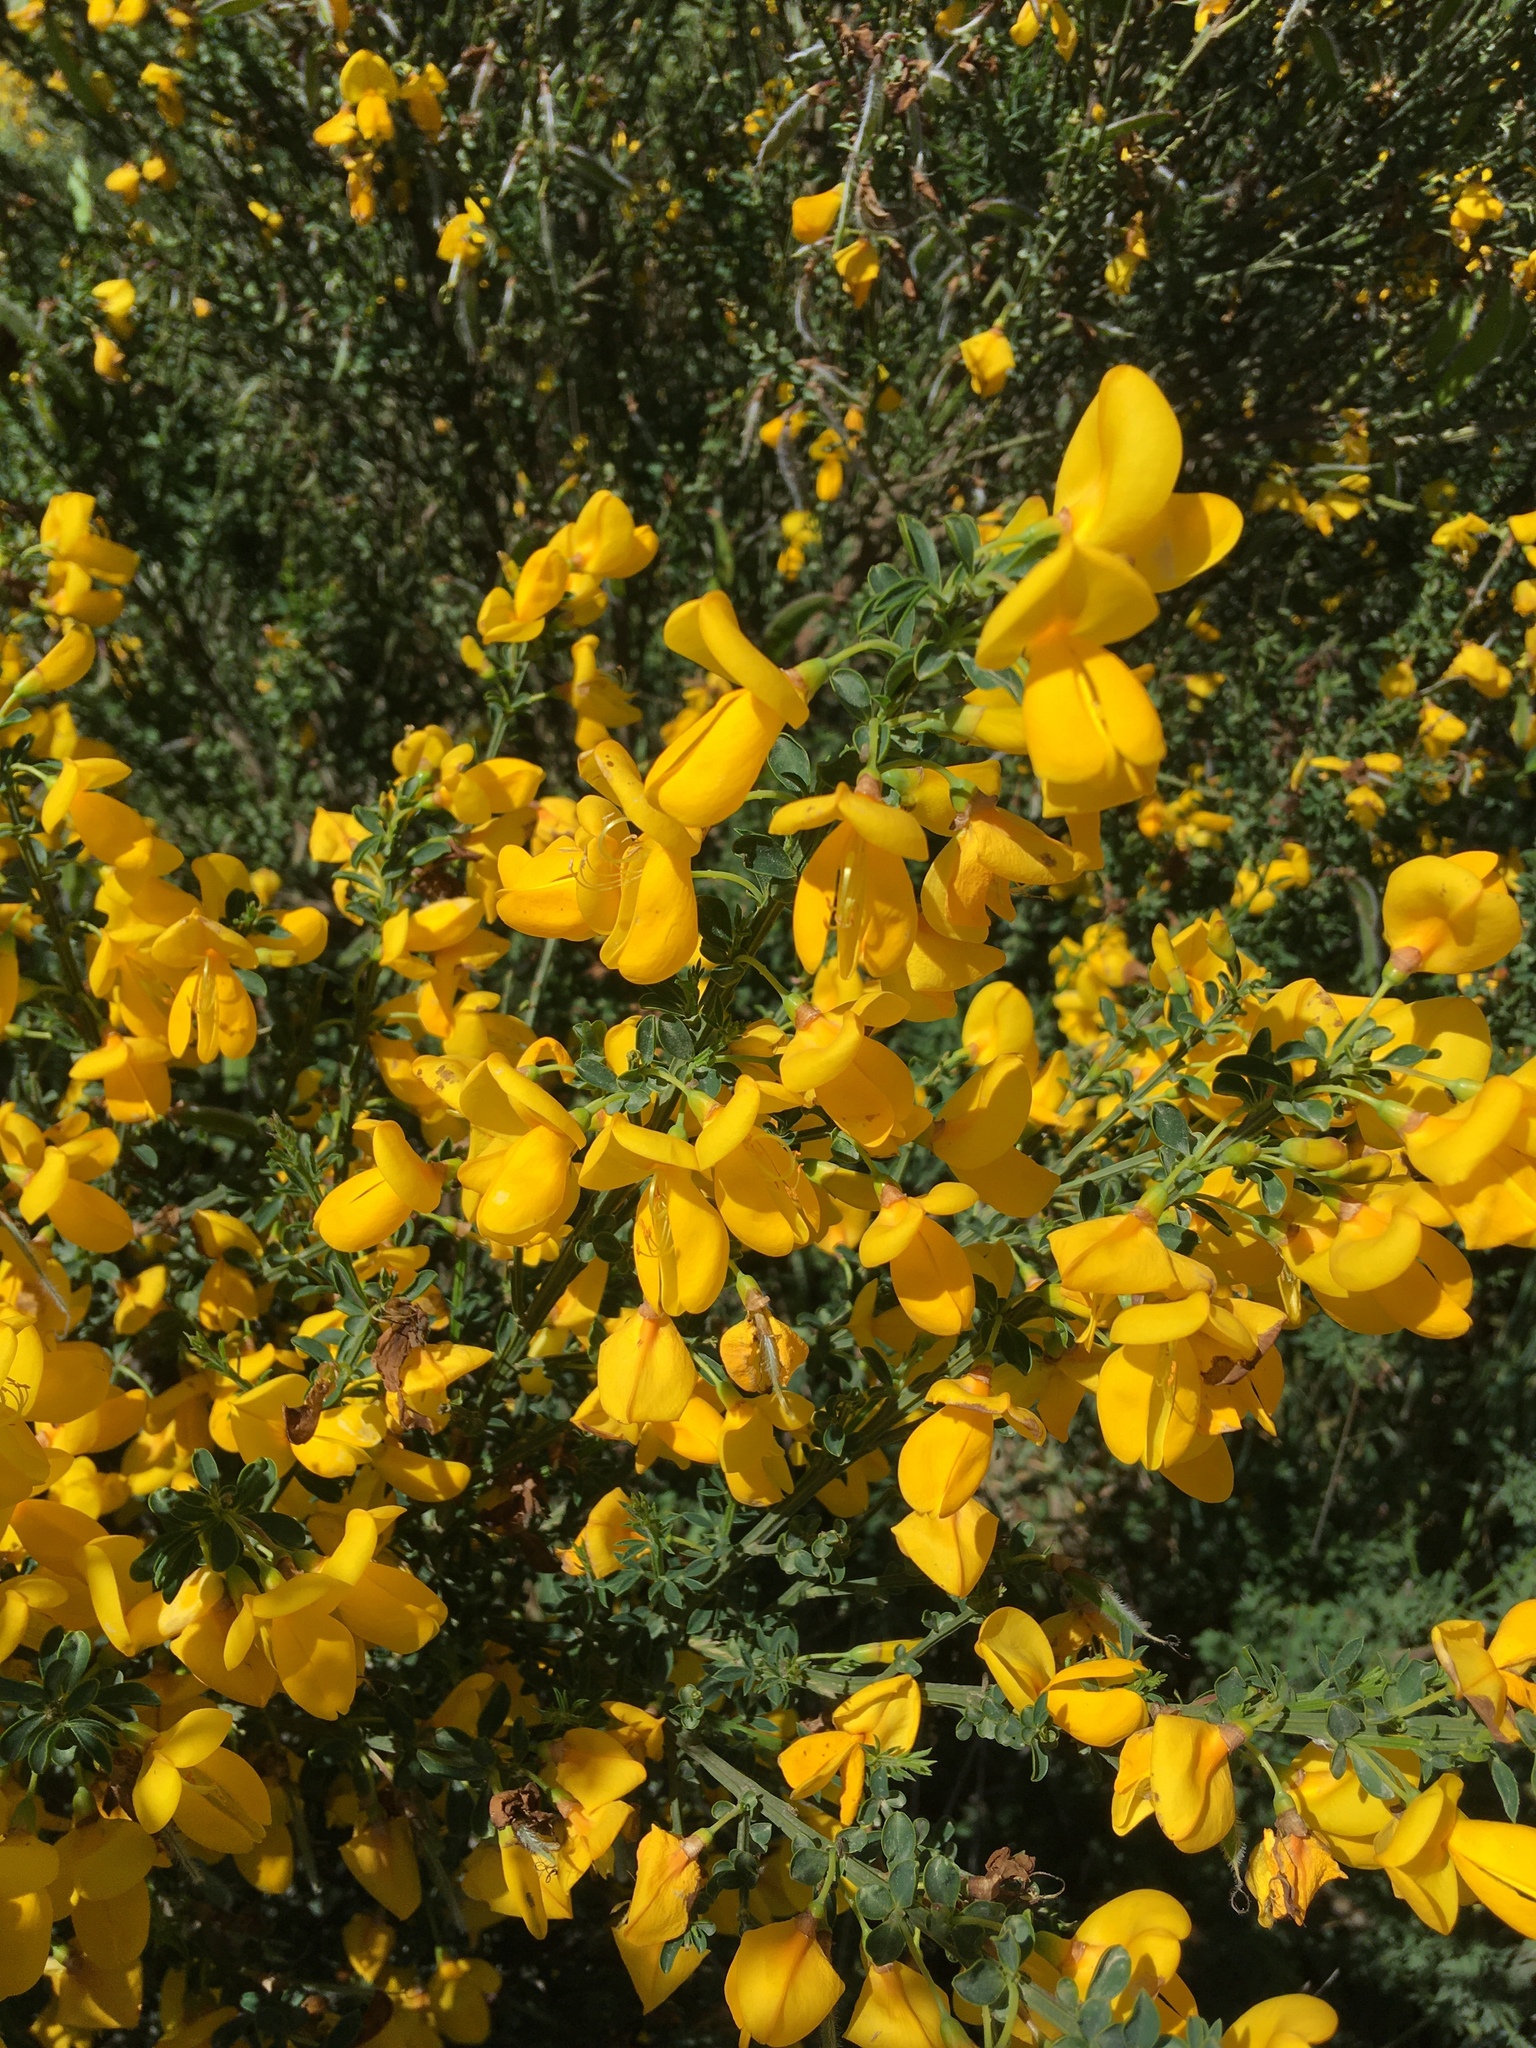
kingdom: Plantae
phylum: Tracheophyta
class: Magnoliopsida
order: Fabales
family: Fabaceae
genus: Cytisus
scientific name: Cytisus scoparius
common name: Scotch broom
